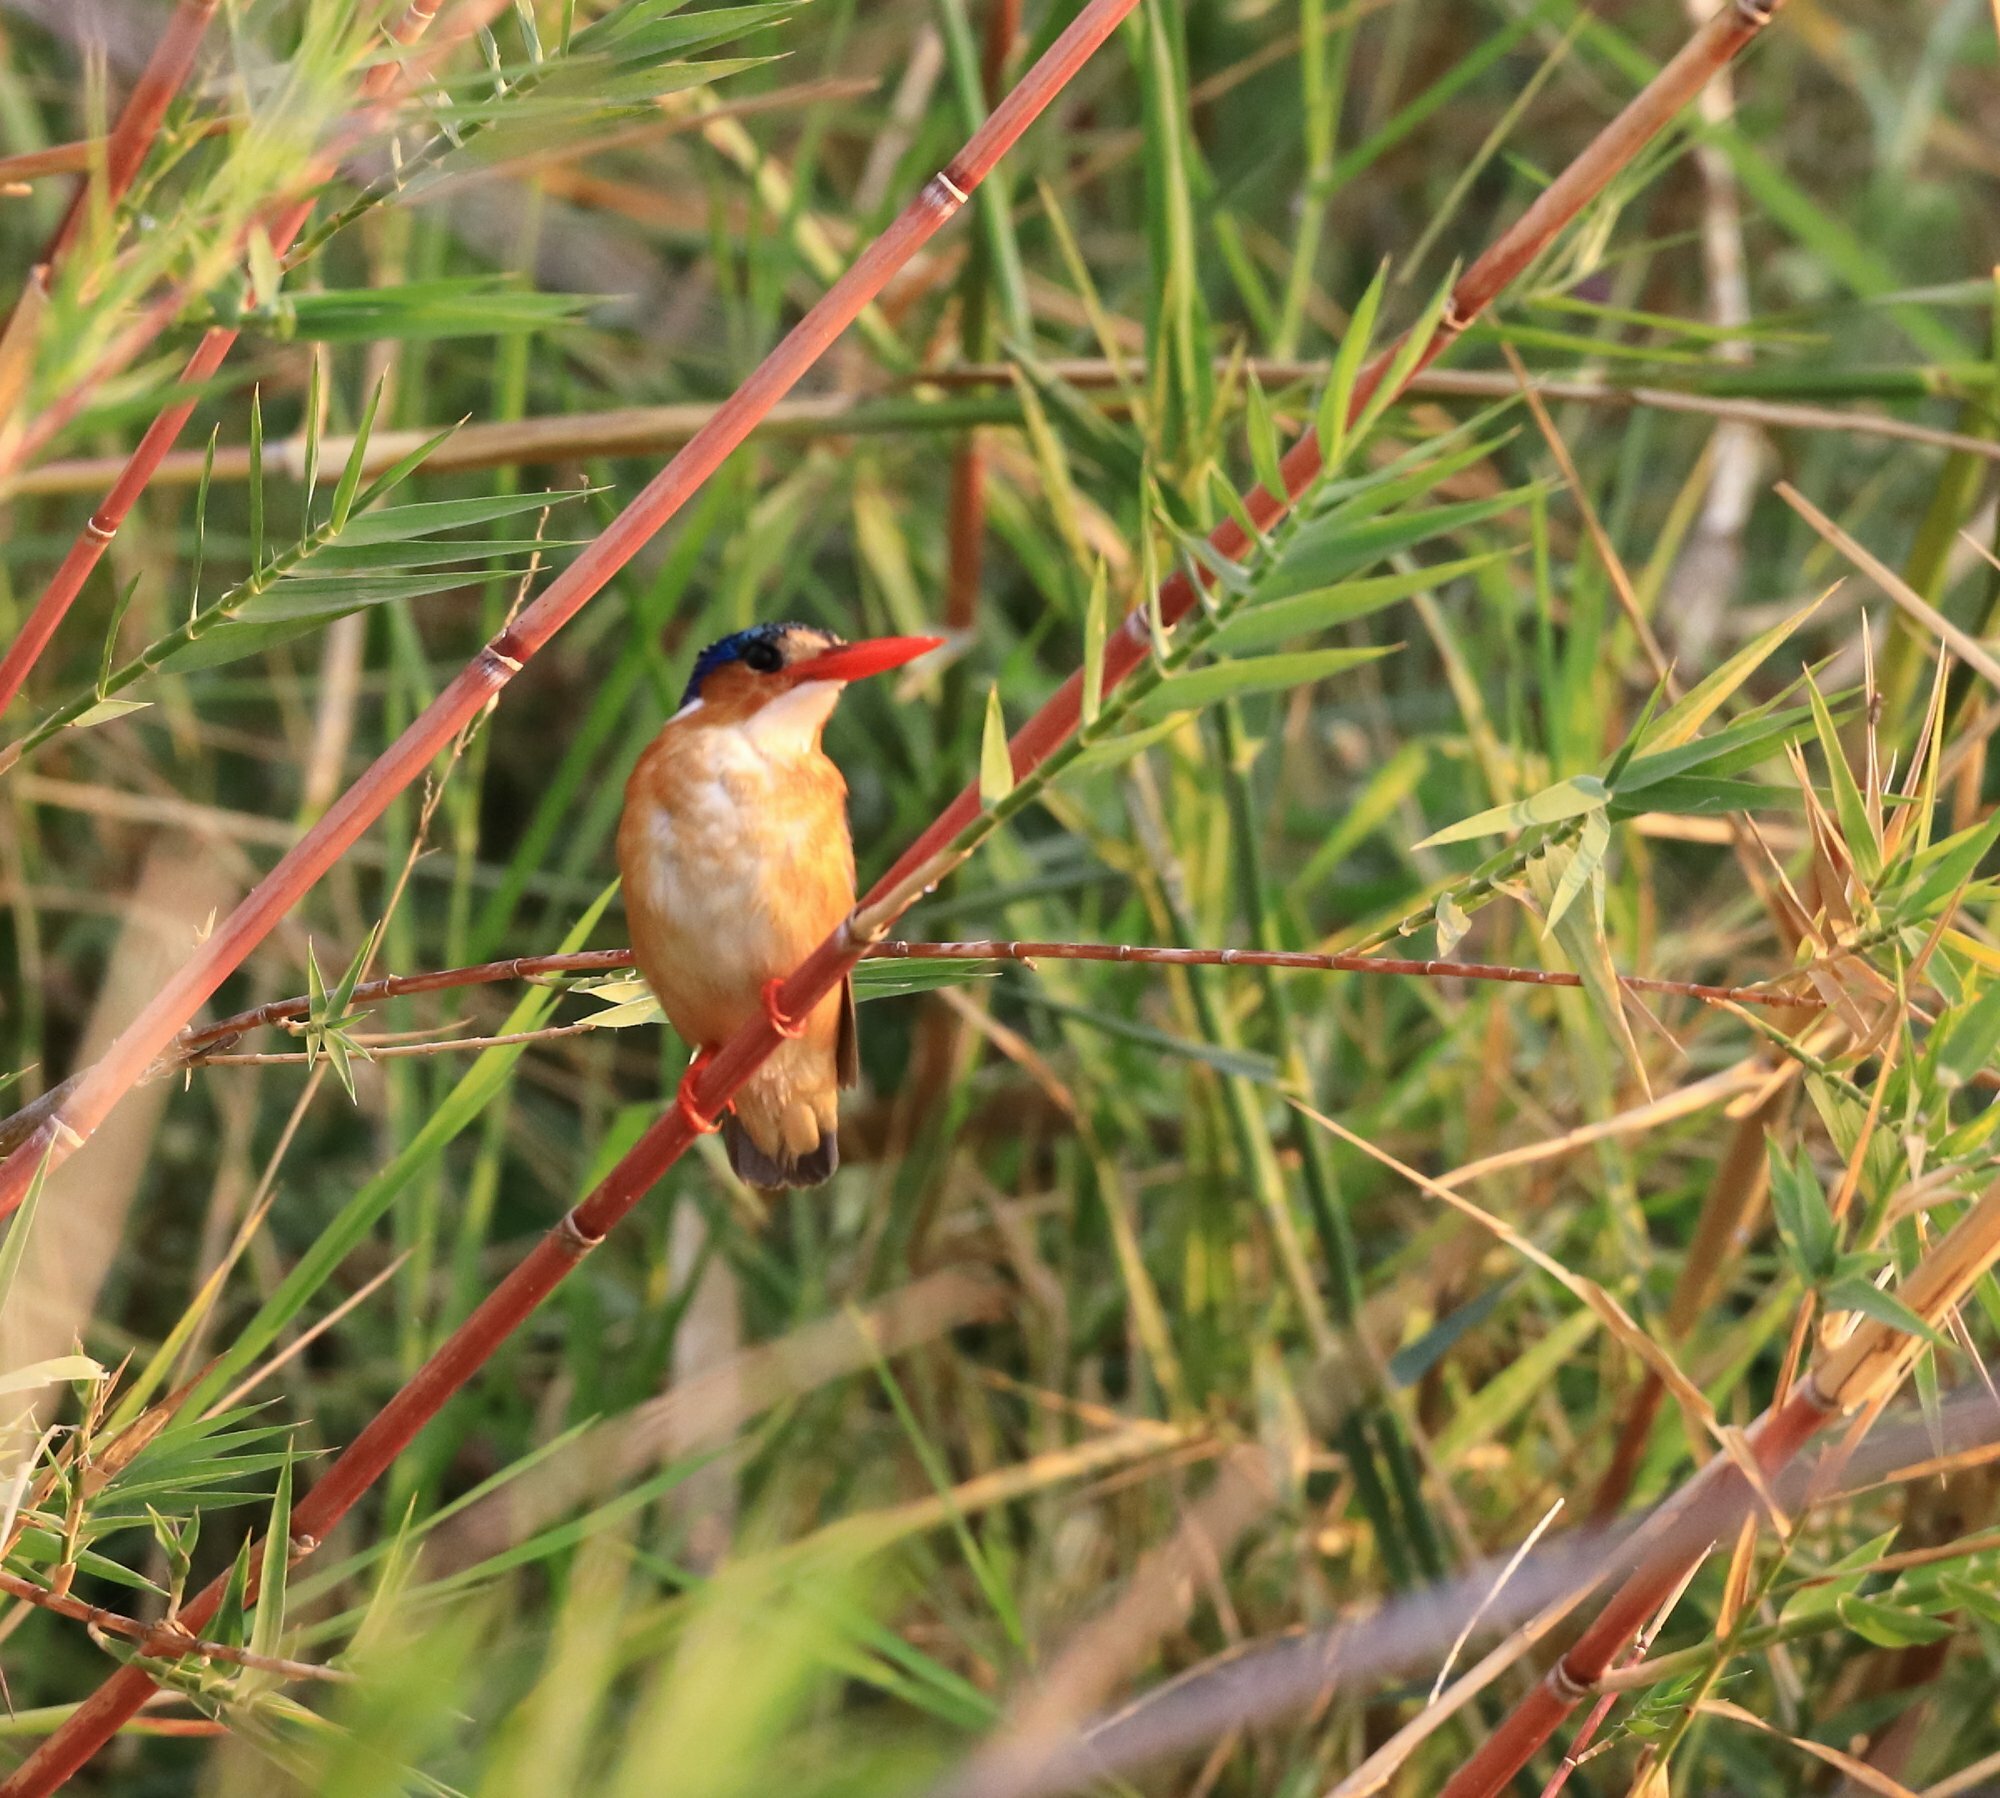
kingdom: Animalia
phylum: Chordata
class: Aves
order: Coraciiformes
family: Alcedinidae
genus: Corythornis
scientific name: Corythornis cristatus
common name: Malachite kingfisher
